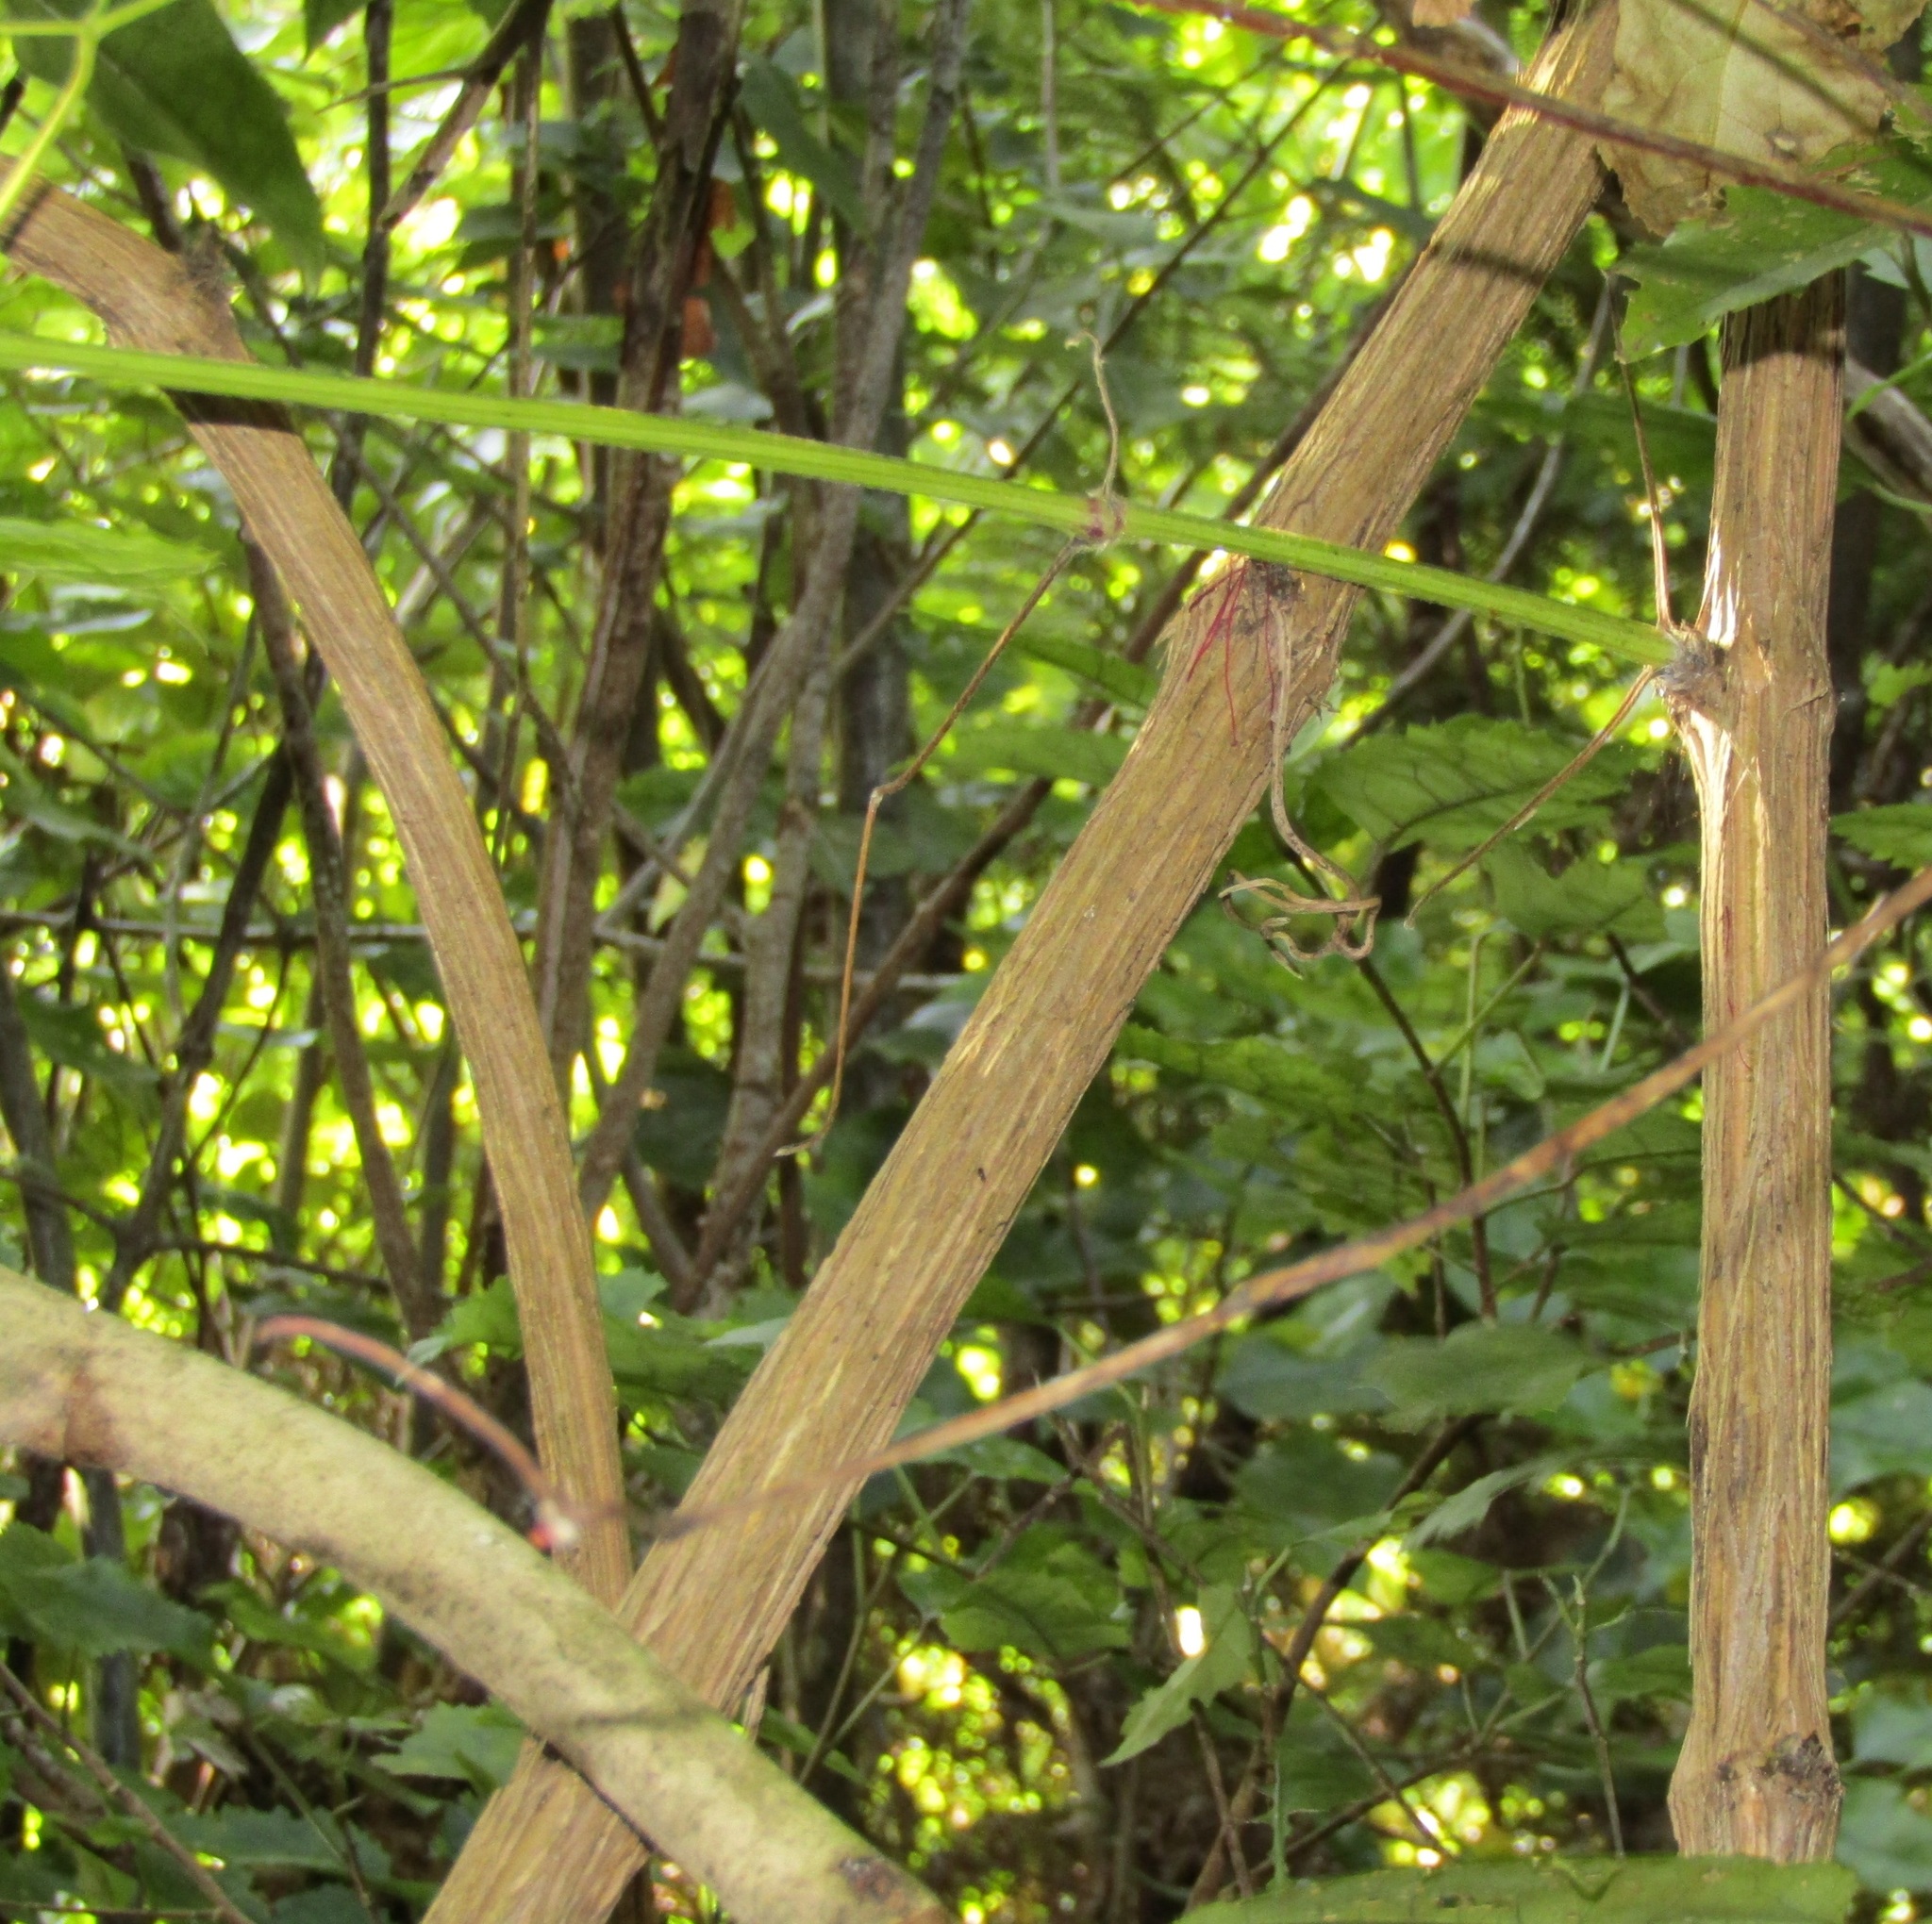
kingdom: Plantae
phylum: Tracheophyta
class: Magnoliopsida
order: Ranunculales
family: Ranunculaceae
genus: Clematis
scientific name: Clematis vitalba
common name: Evergreen clematis
